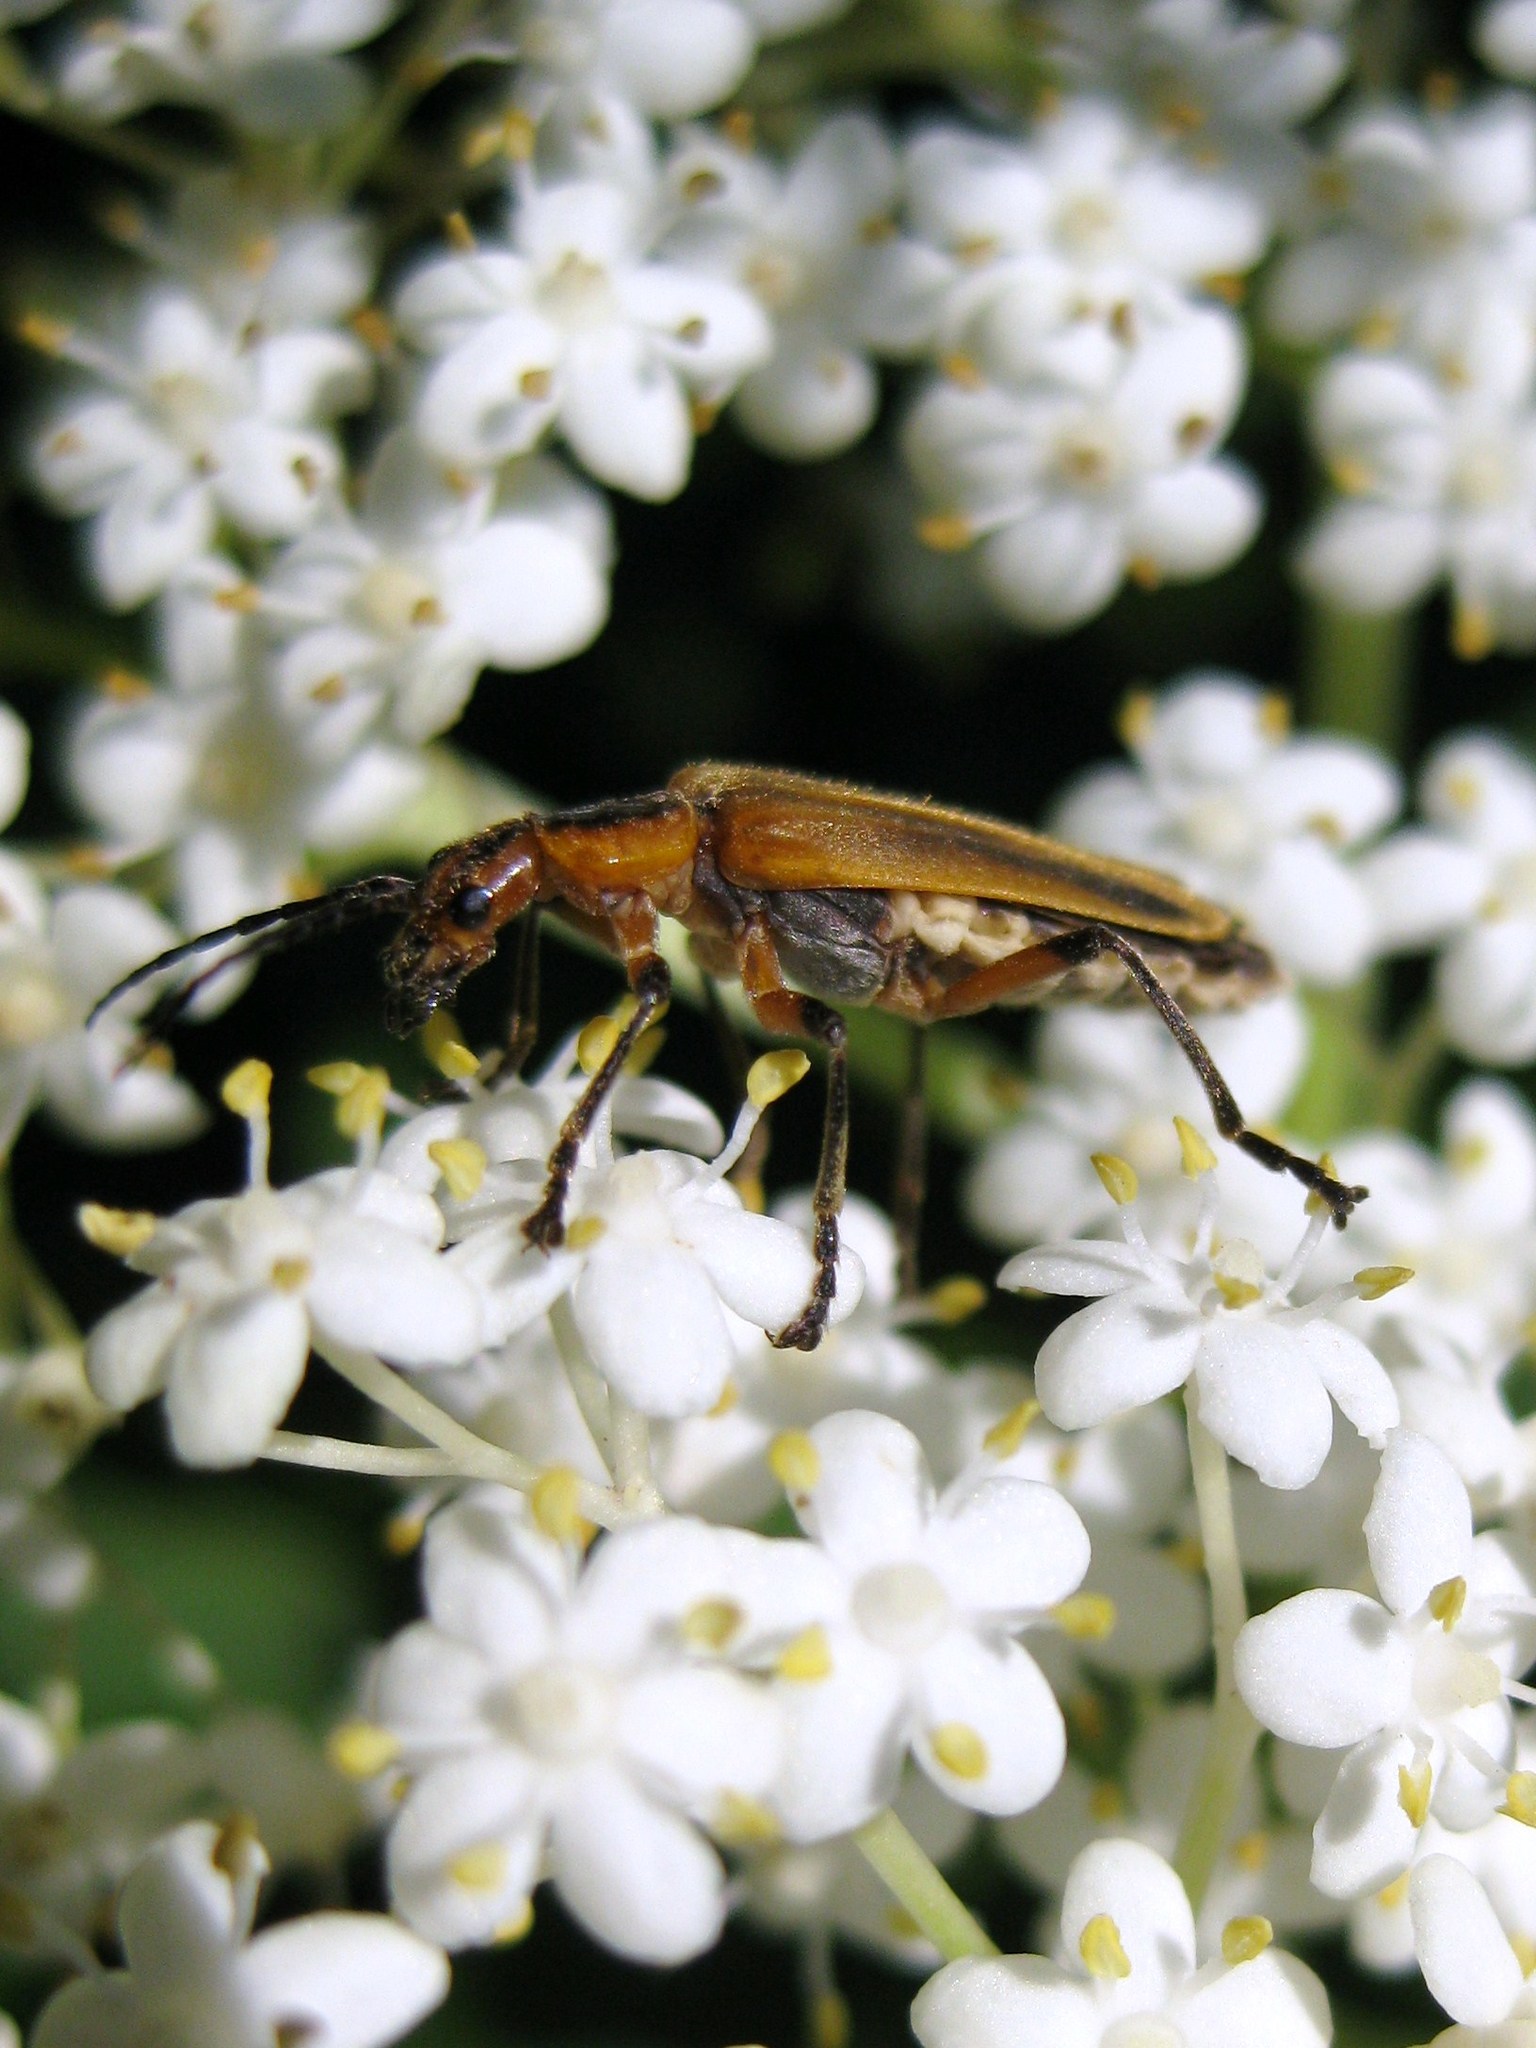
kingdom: Animalia
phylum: Arthropoda
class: Insecta
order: Coleoptera
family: Cantharidae
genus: Chauliognathus
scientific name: Chauliognathus marginatus
